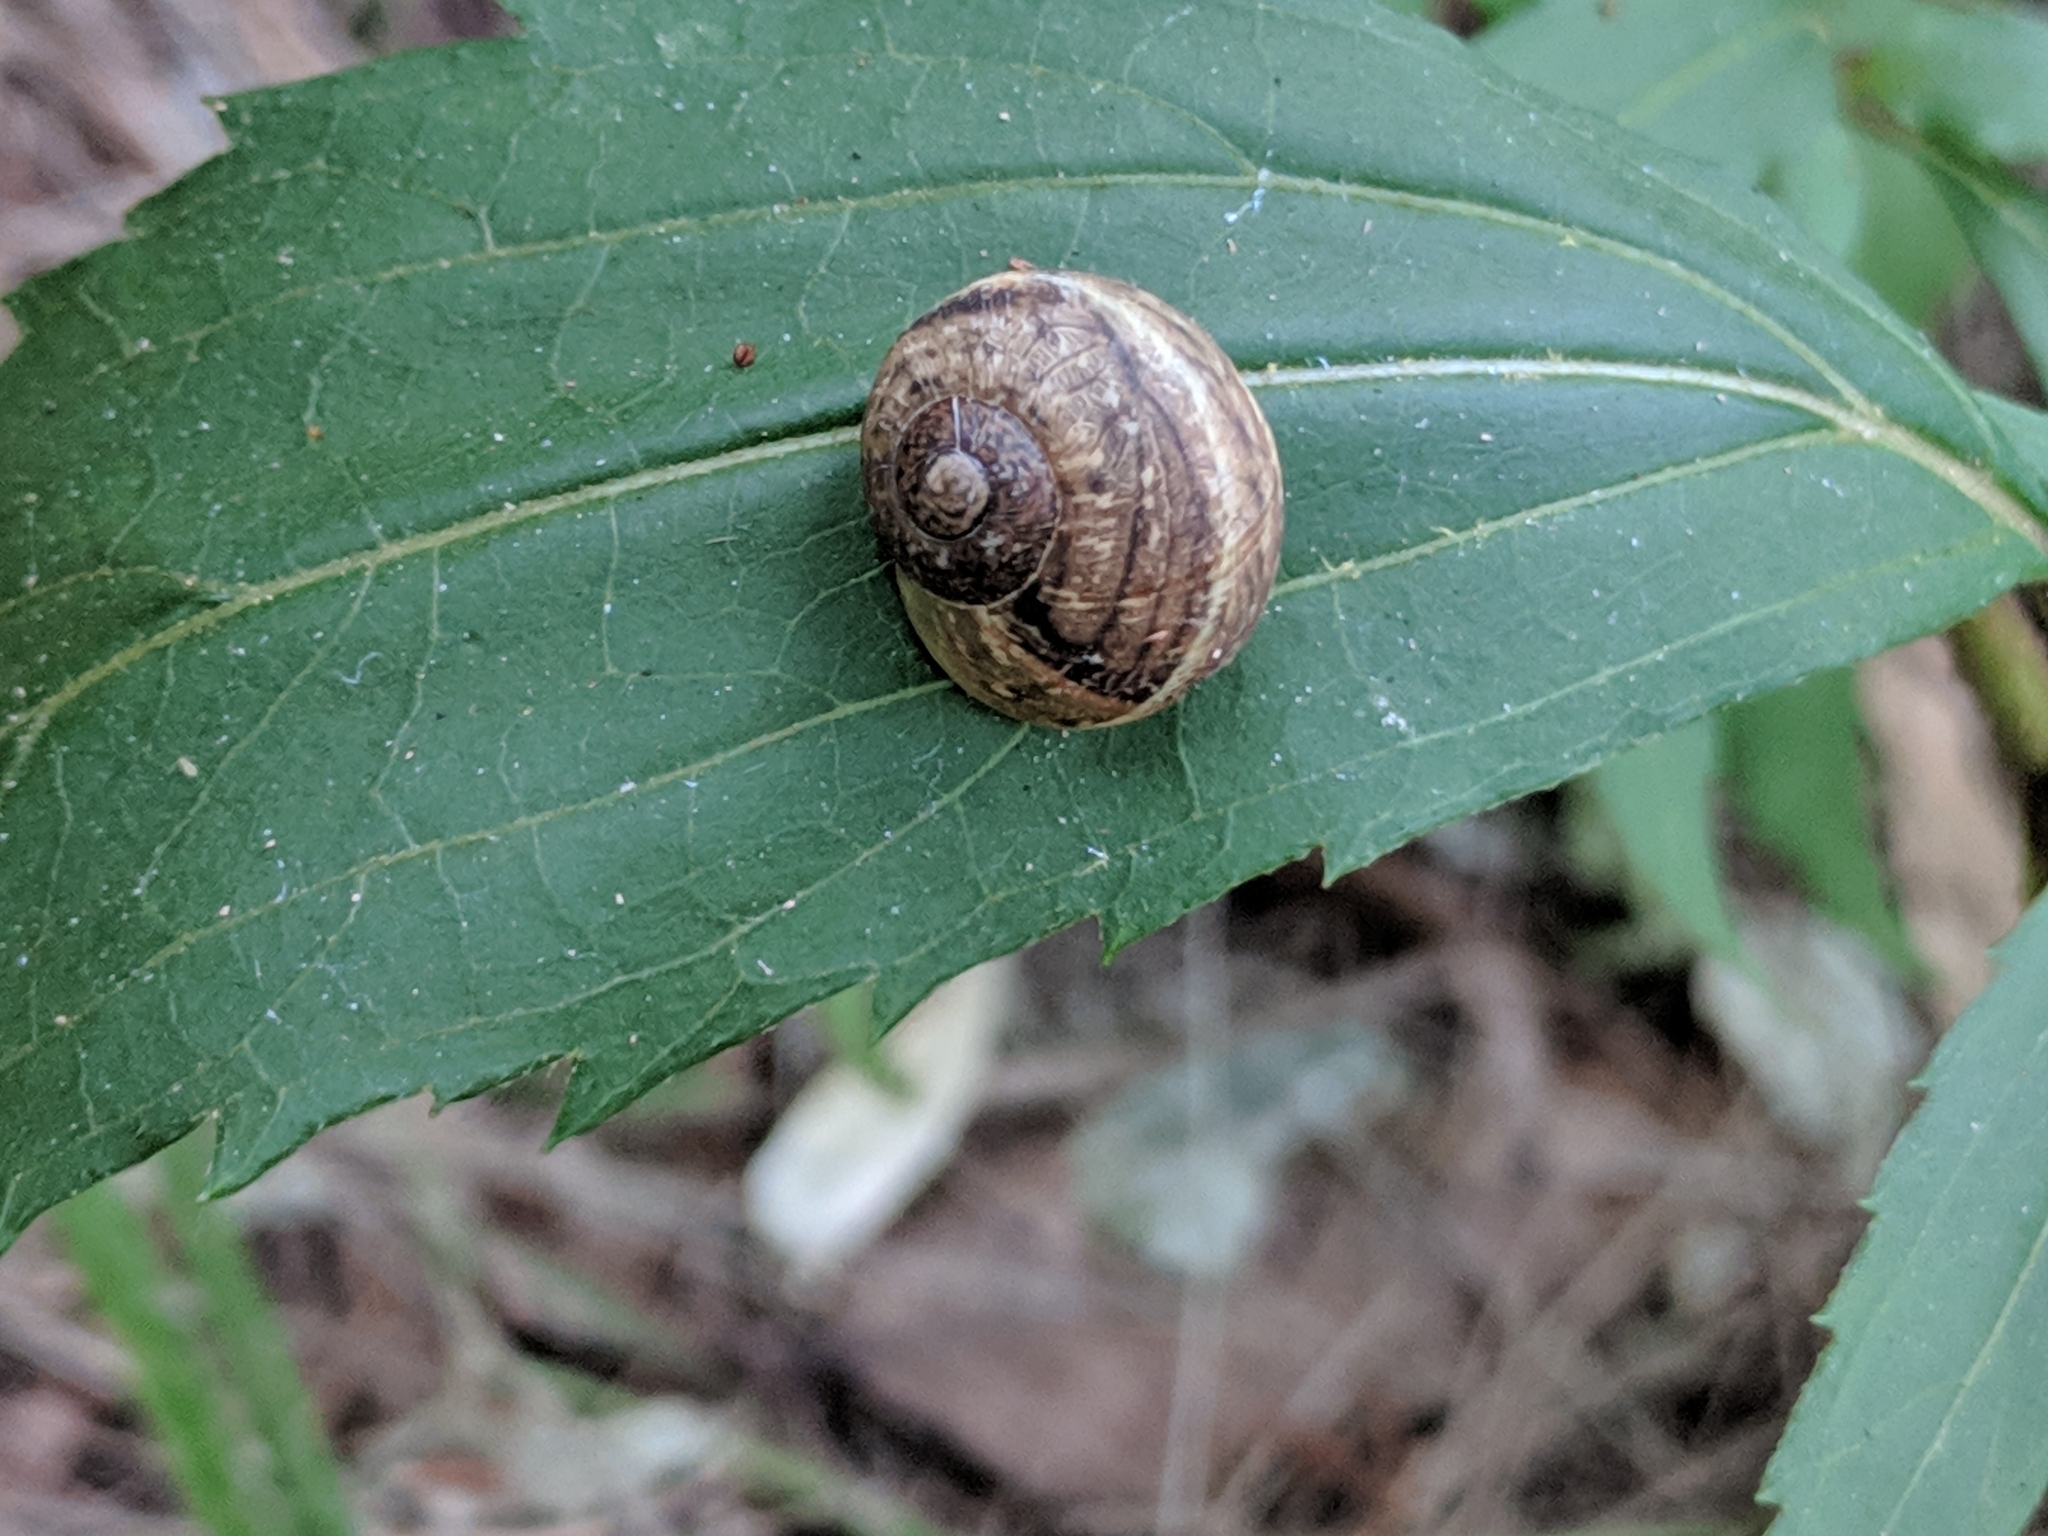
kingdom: Animalia
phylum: Mollusca
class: Gastropoda
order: Stylommatophora
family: Helicidae
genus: Cornu
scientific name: Cornu aspersum
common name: Brown garden snail
